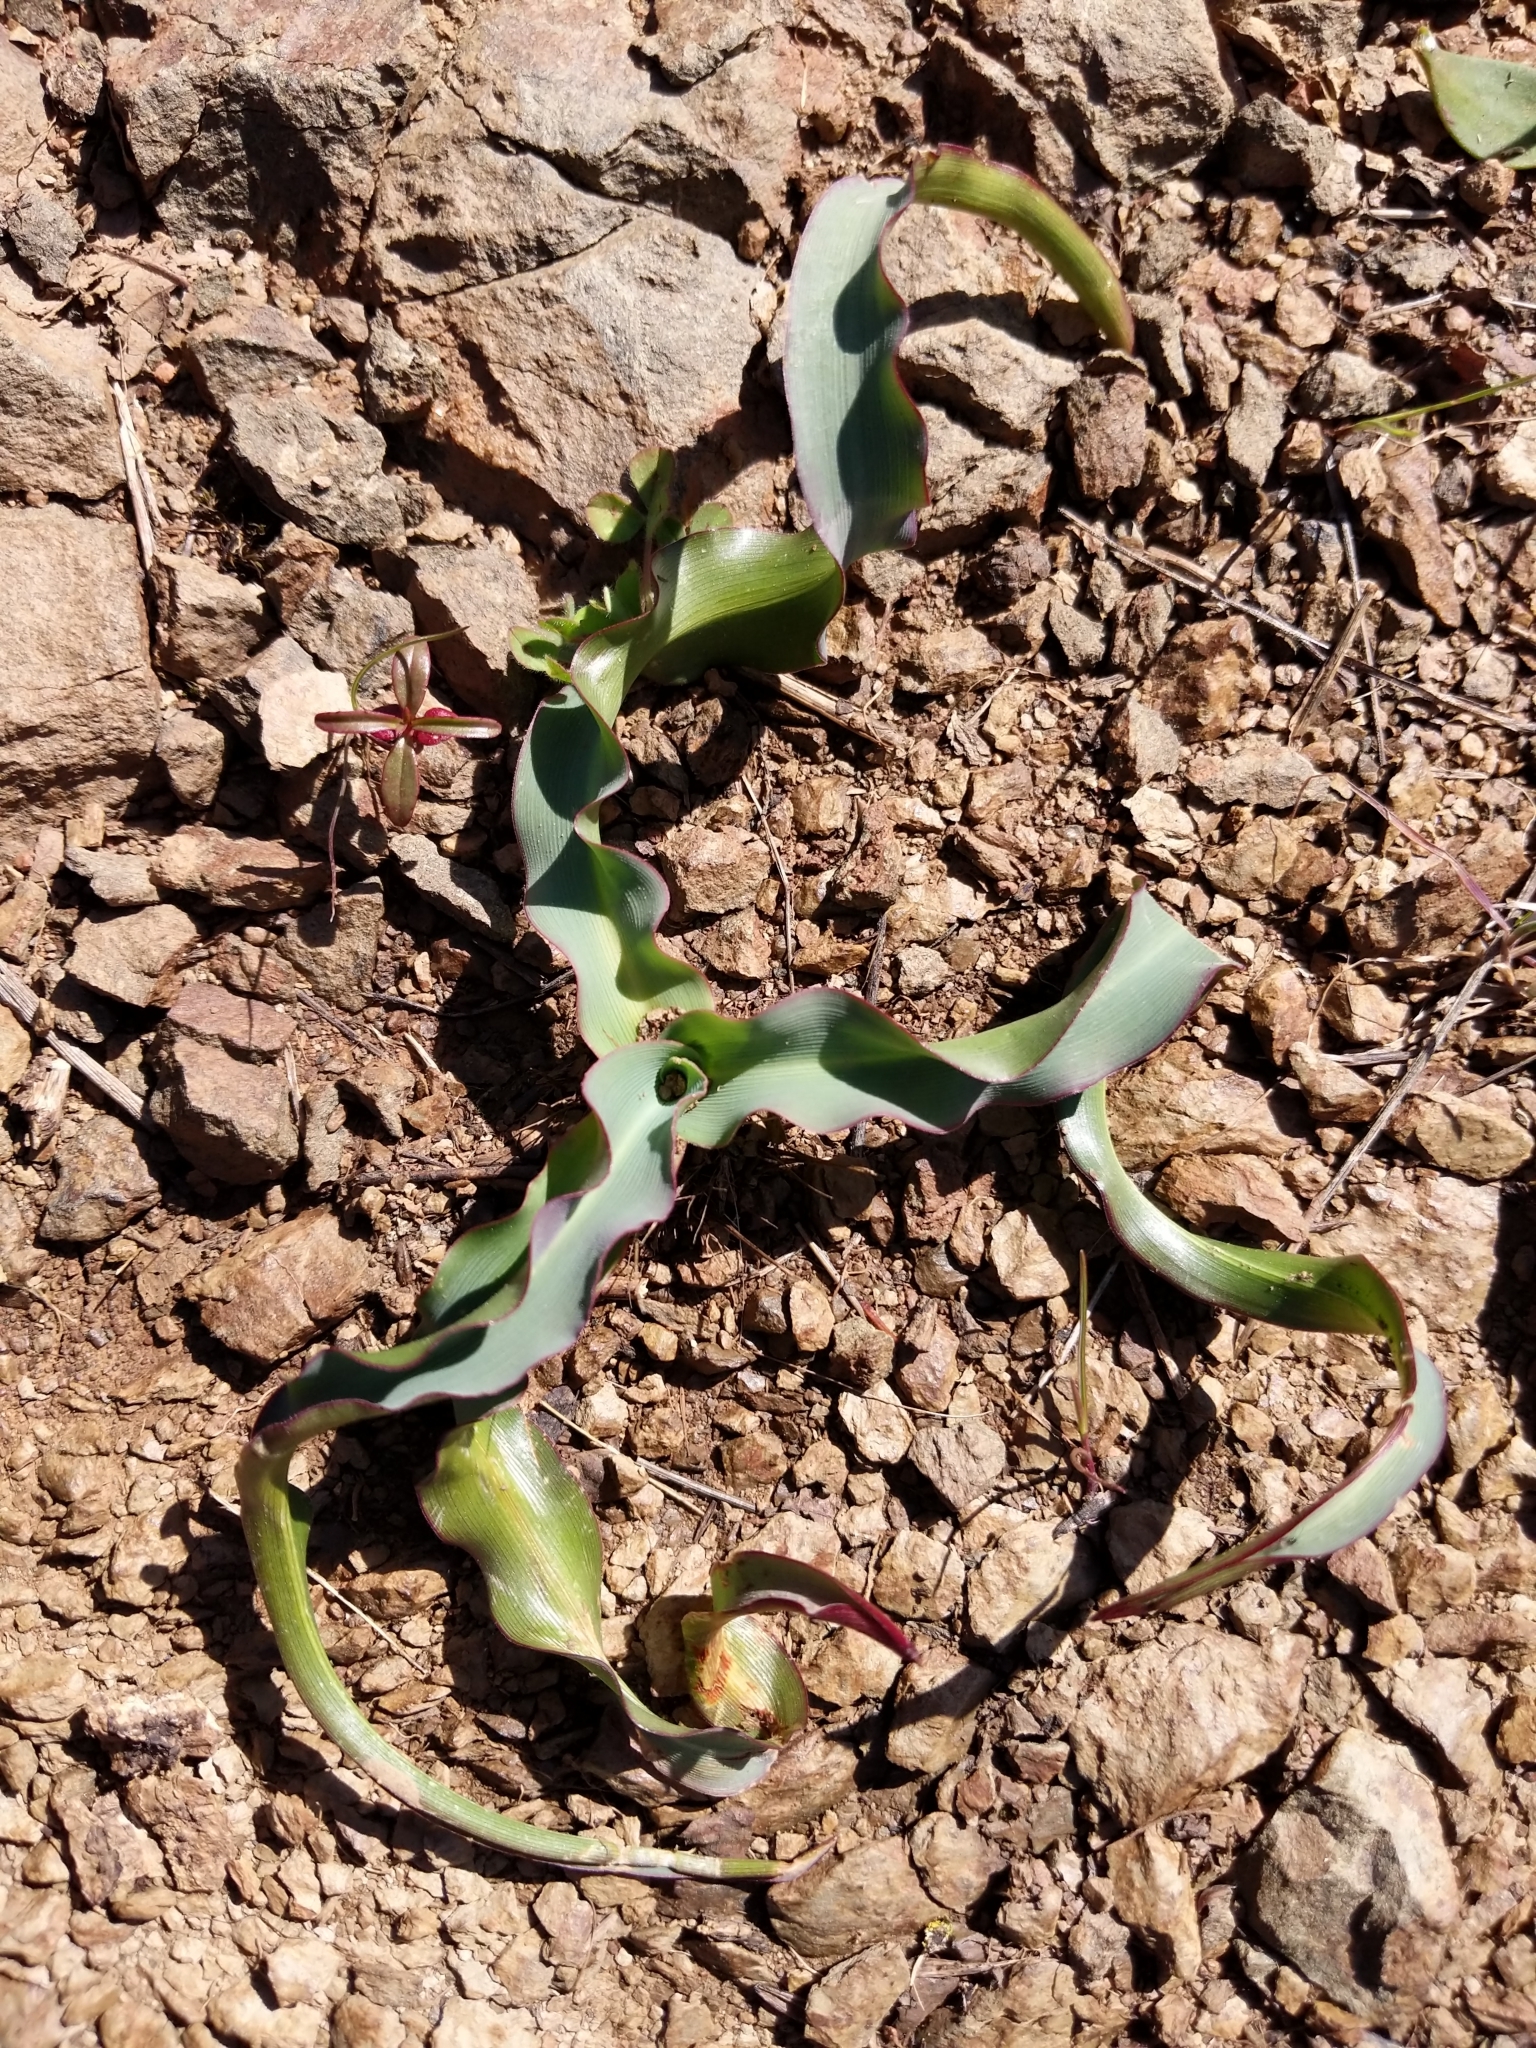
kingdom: Plantae
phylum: Tracheophyta
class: Liliopsida
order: Asparagales
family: Asparagaceae
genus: Chlorogalum
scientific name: Chlorogalum pomeridianum
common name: Amole
